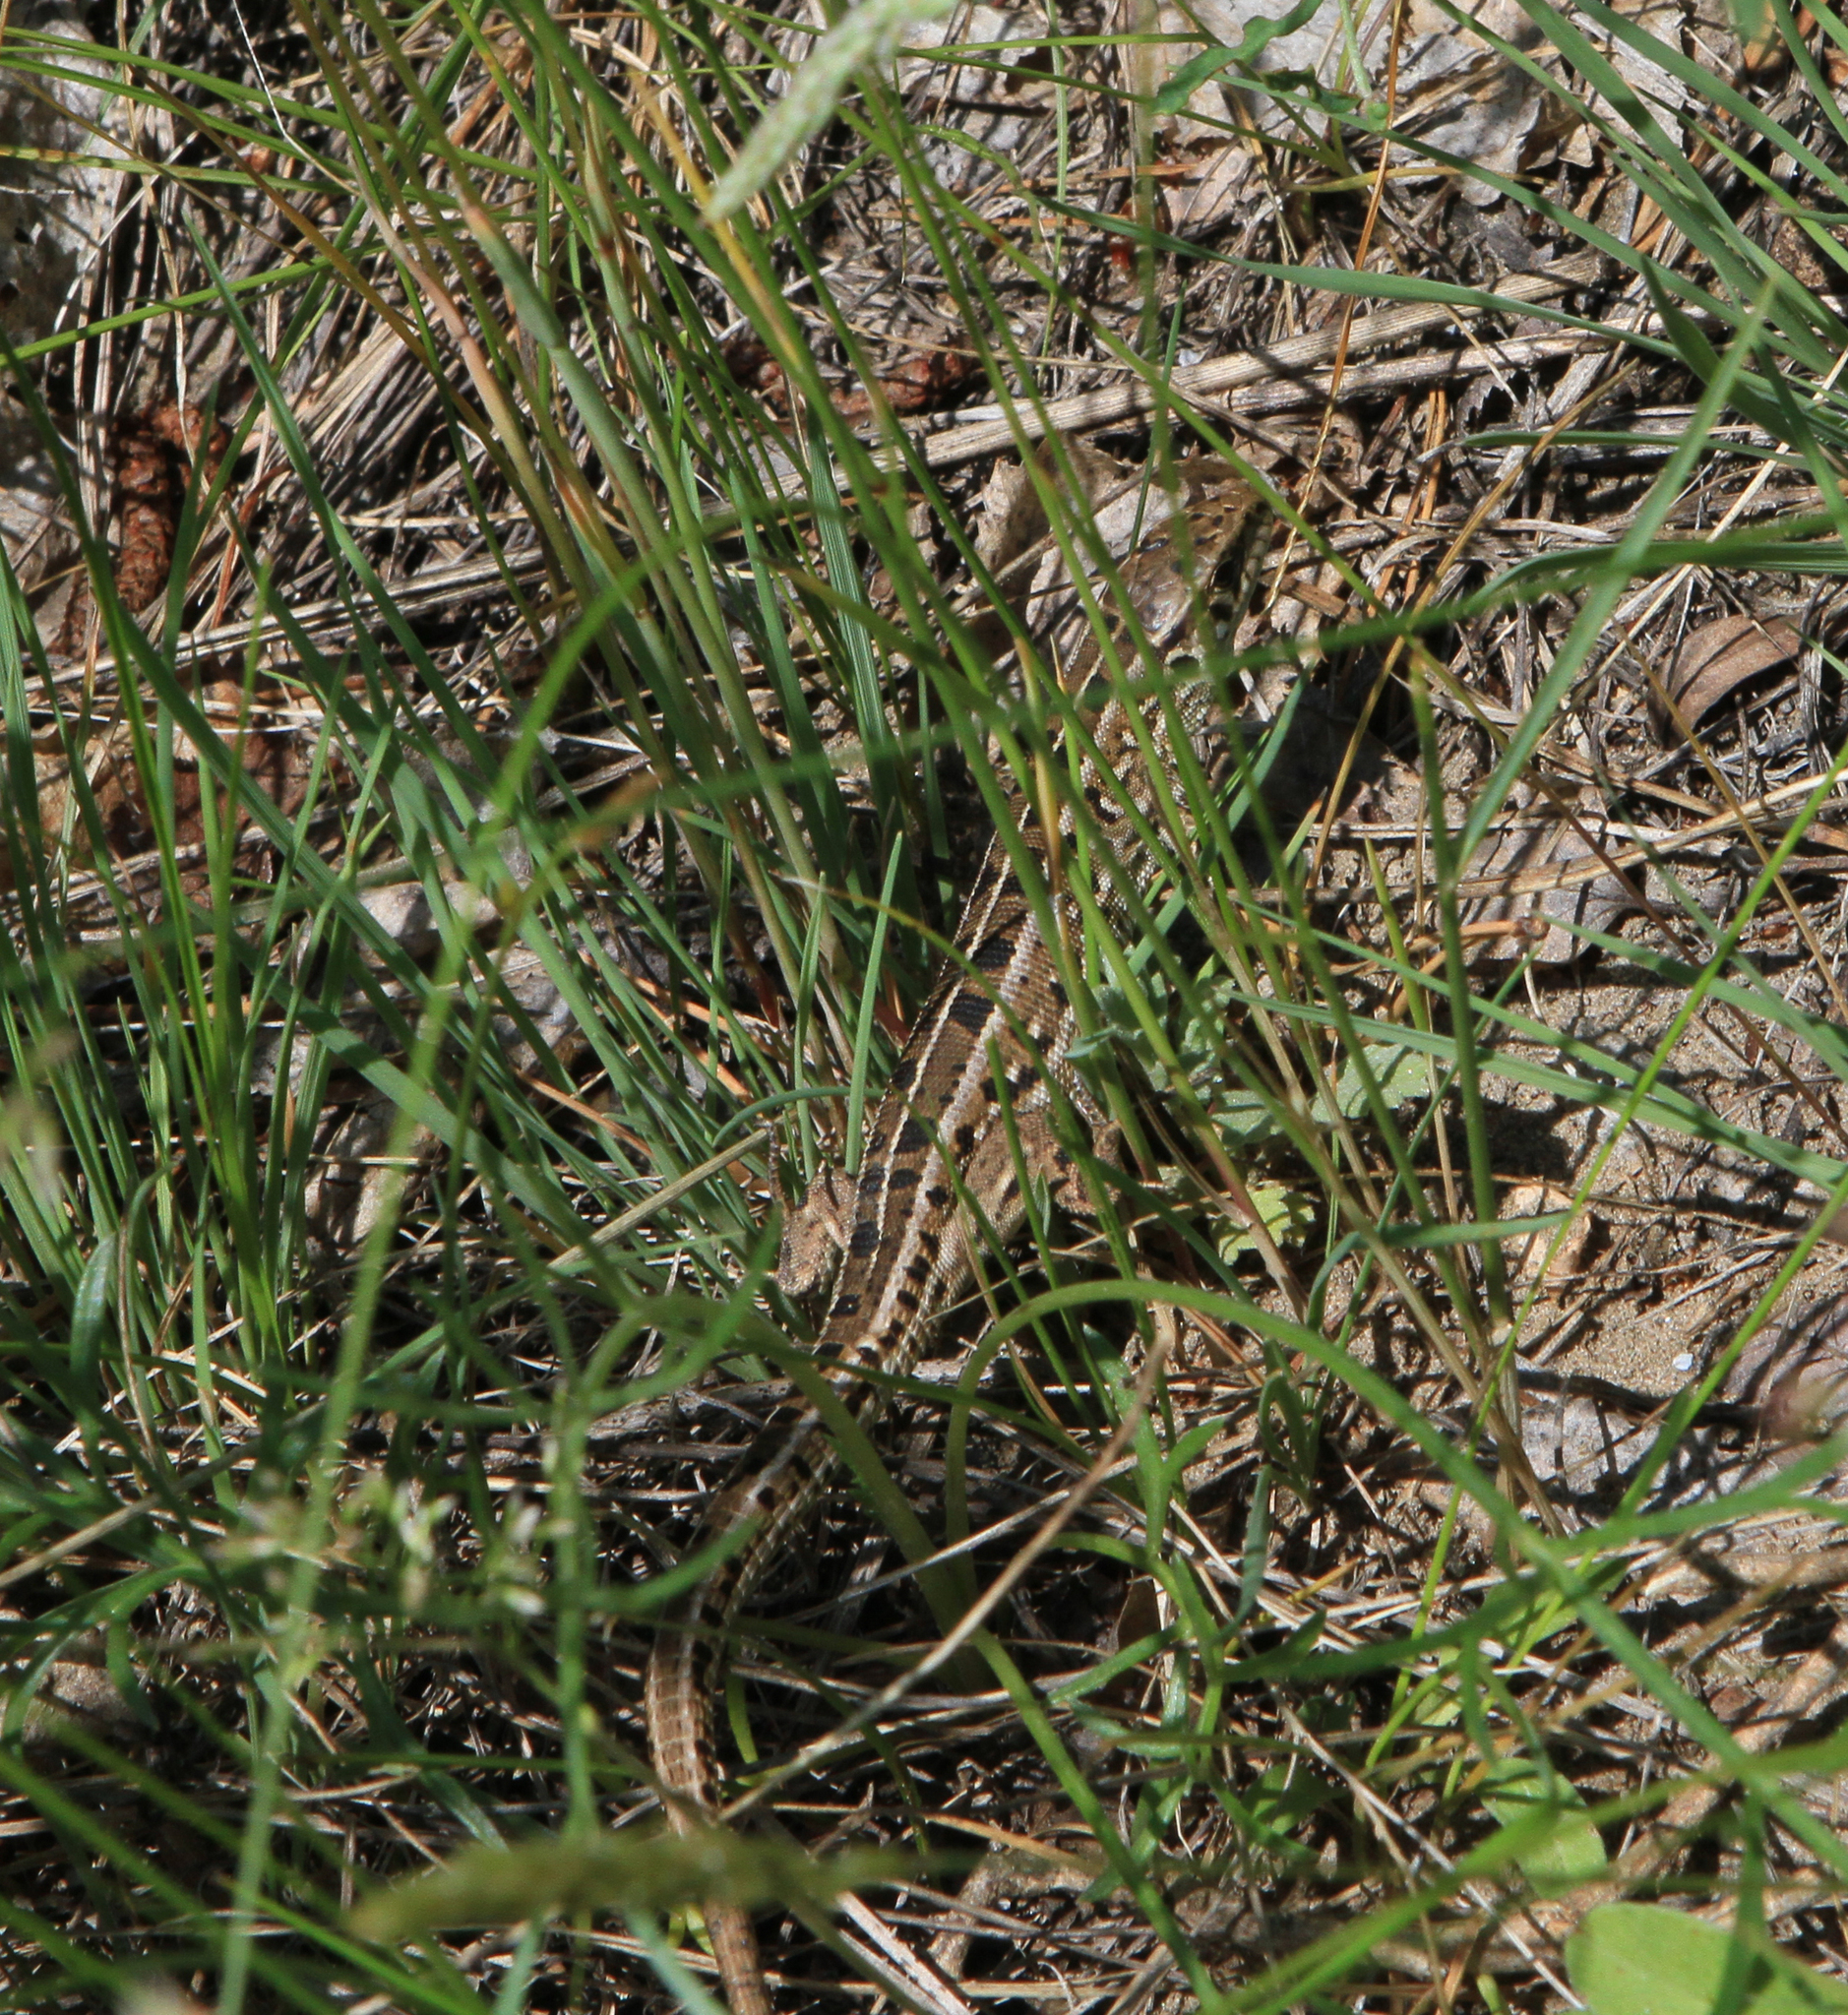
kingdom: Animalia
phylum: Chordata
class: Squamata
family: Lacertidae
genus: Lacerta
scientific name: Lacerta agilis
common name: Sand lizard
